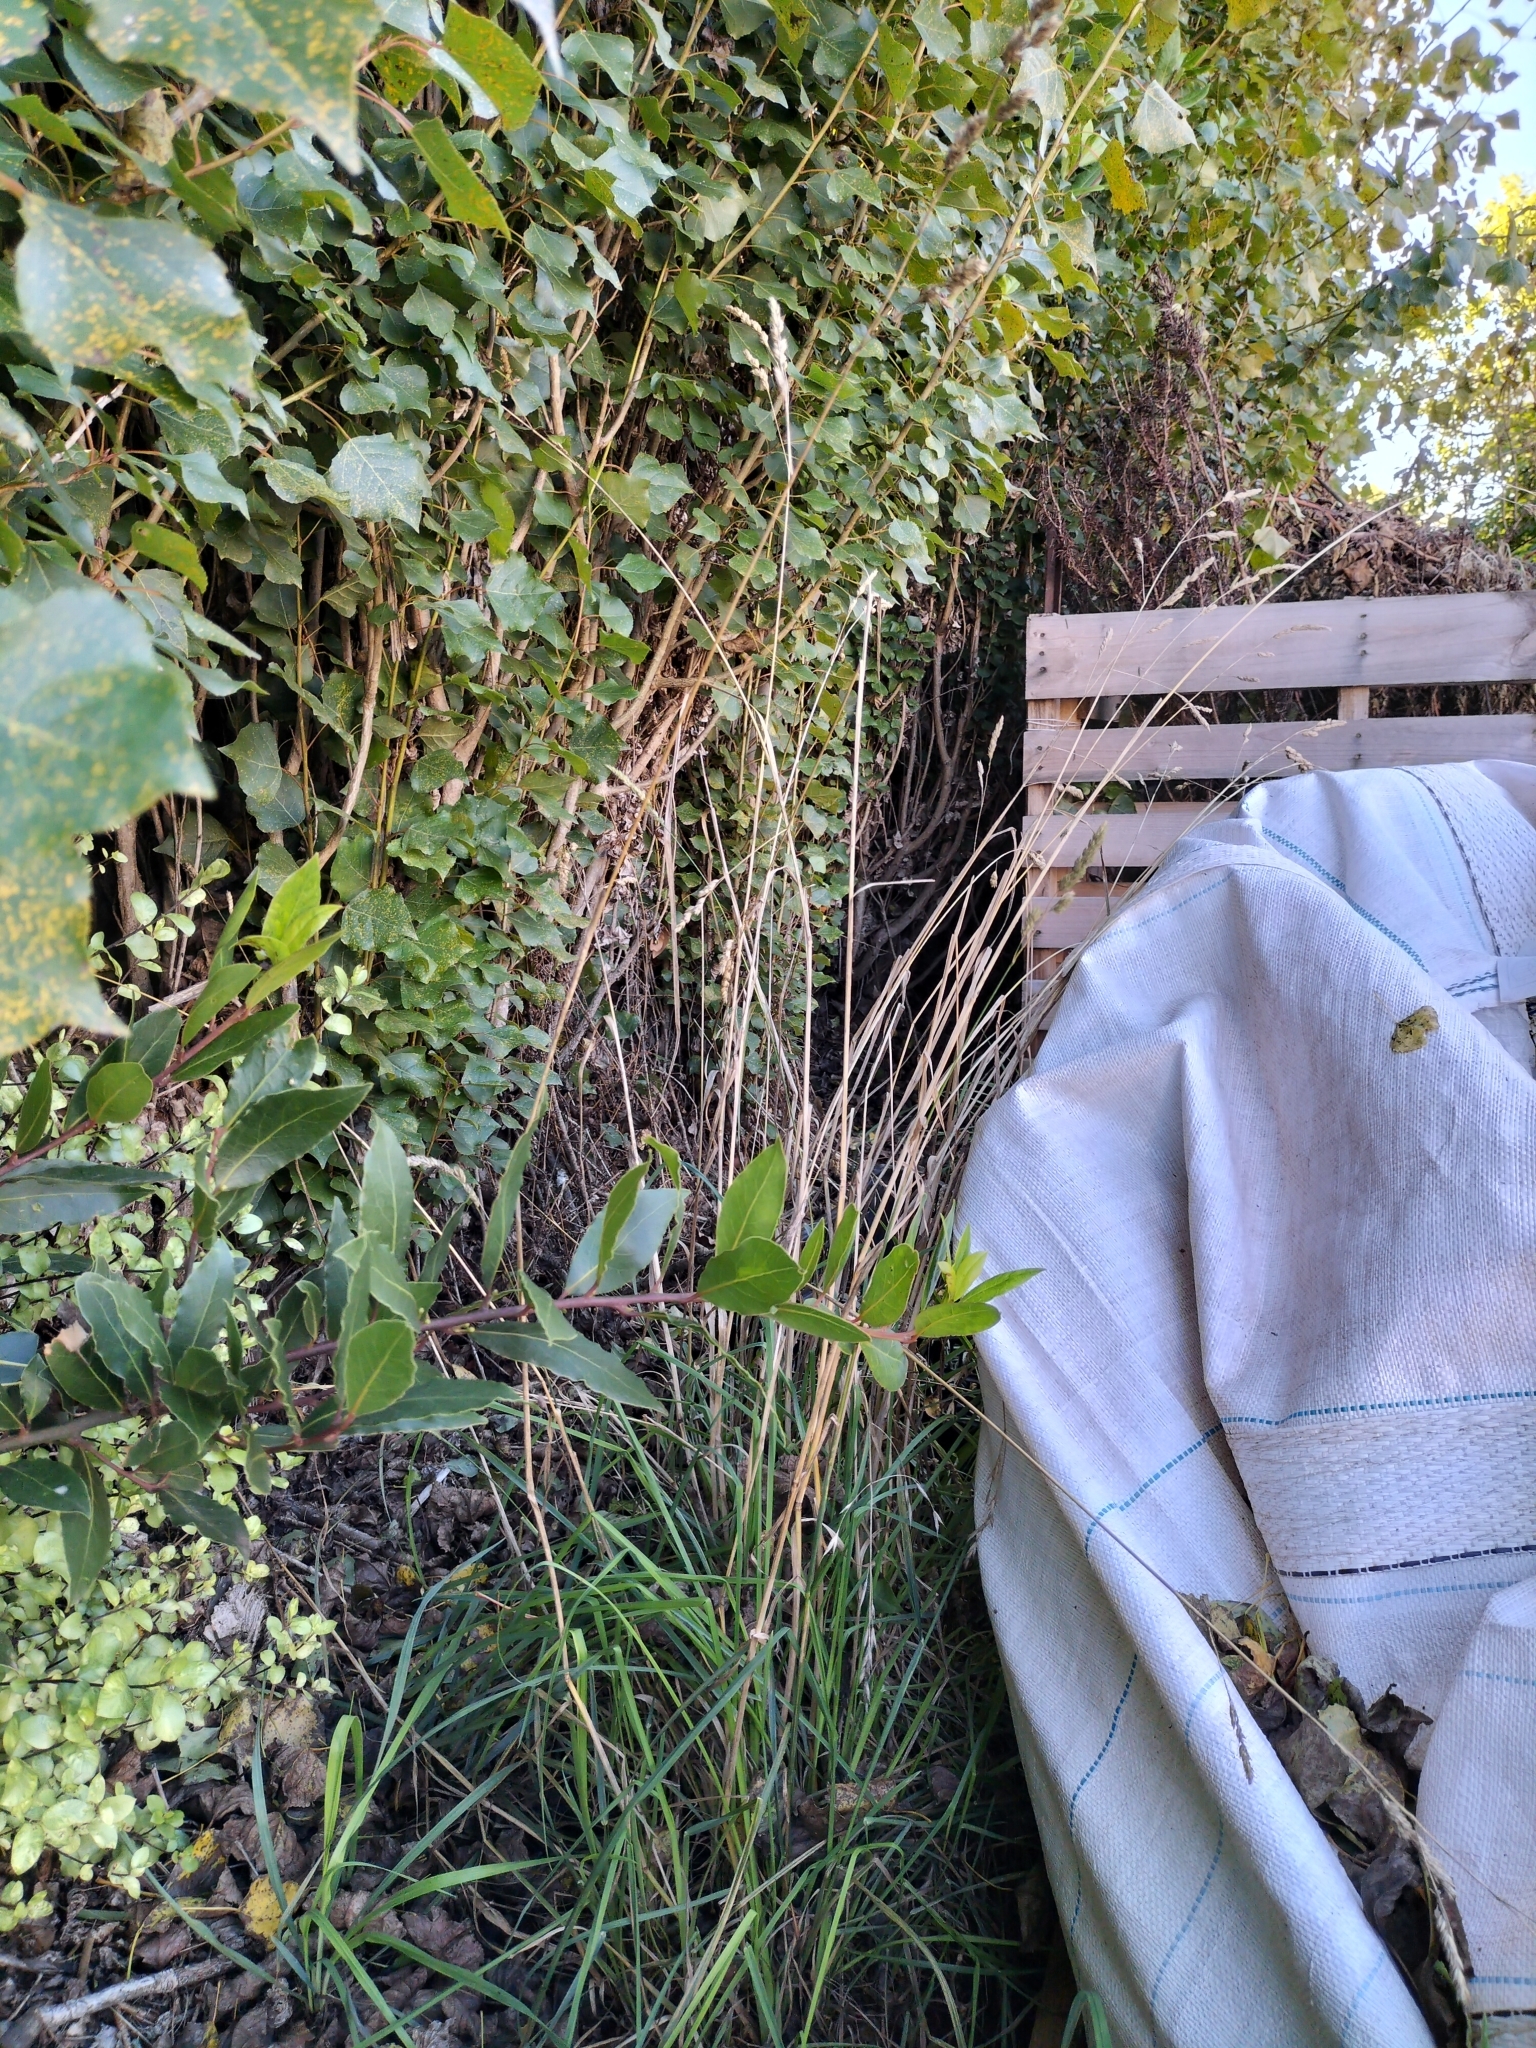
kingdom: Plantae
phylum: Tracheophyta
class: Liliopsida
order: Poales
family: Poaceae
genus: Dactylis
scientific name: Dactylis glomerata
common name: Orchardgrass
